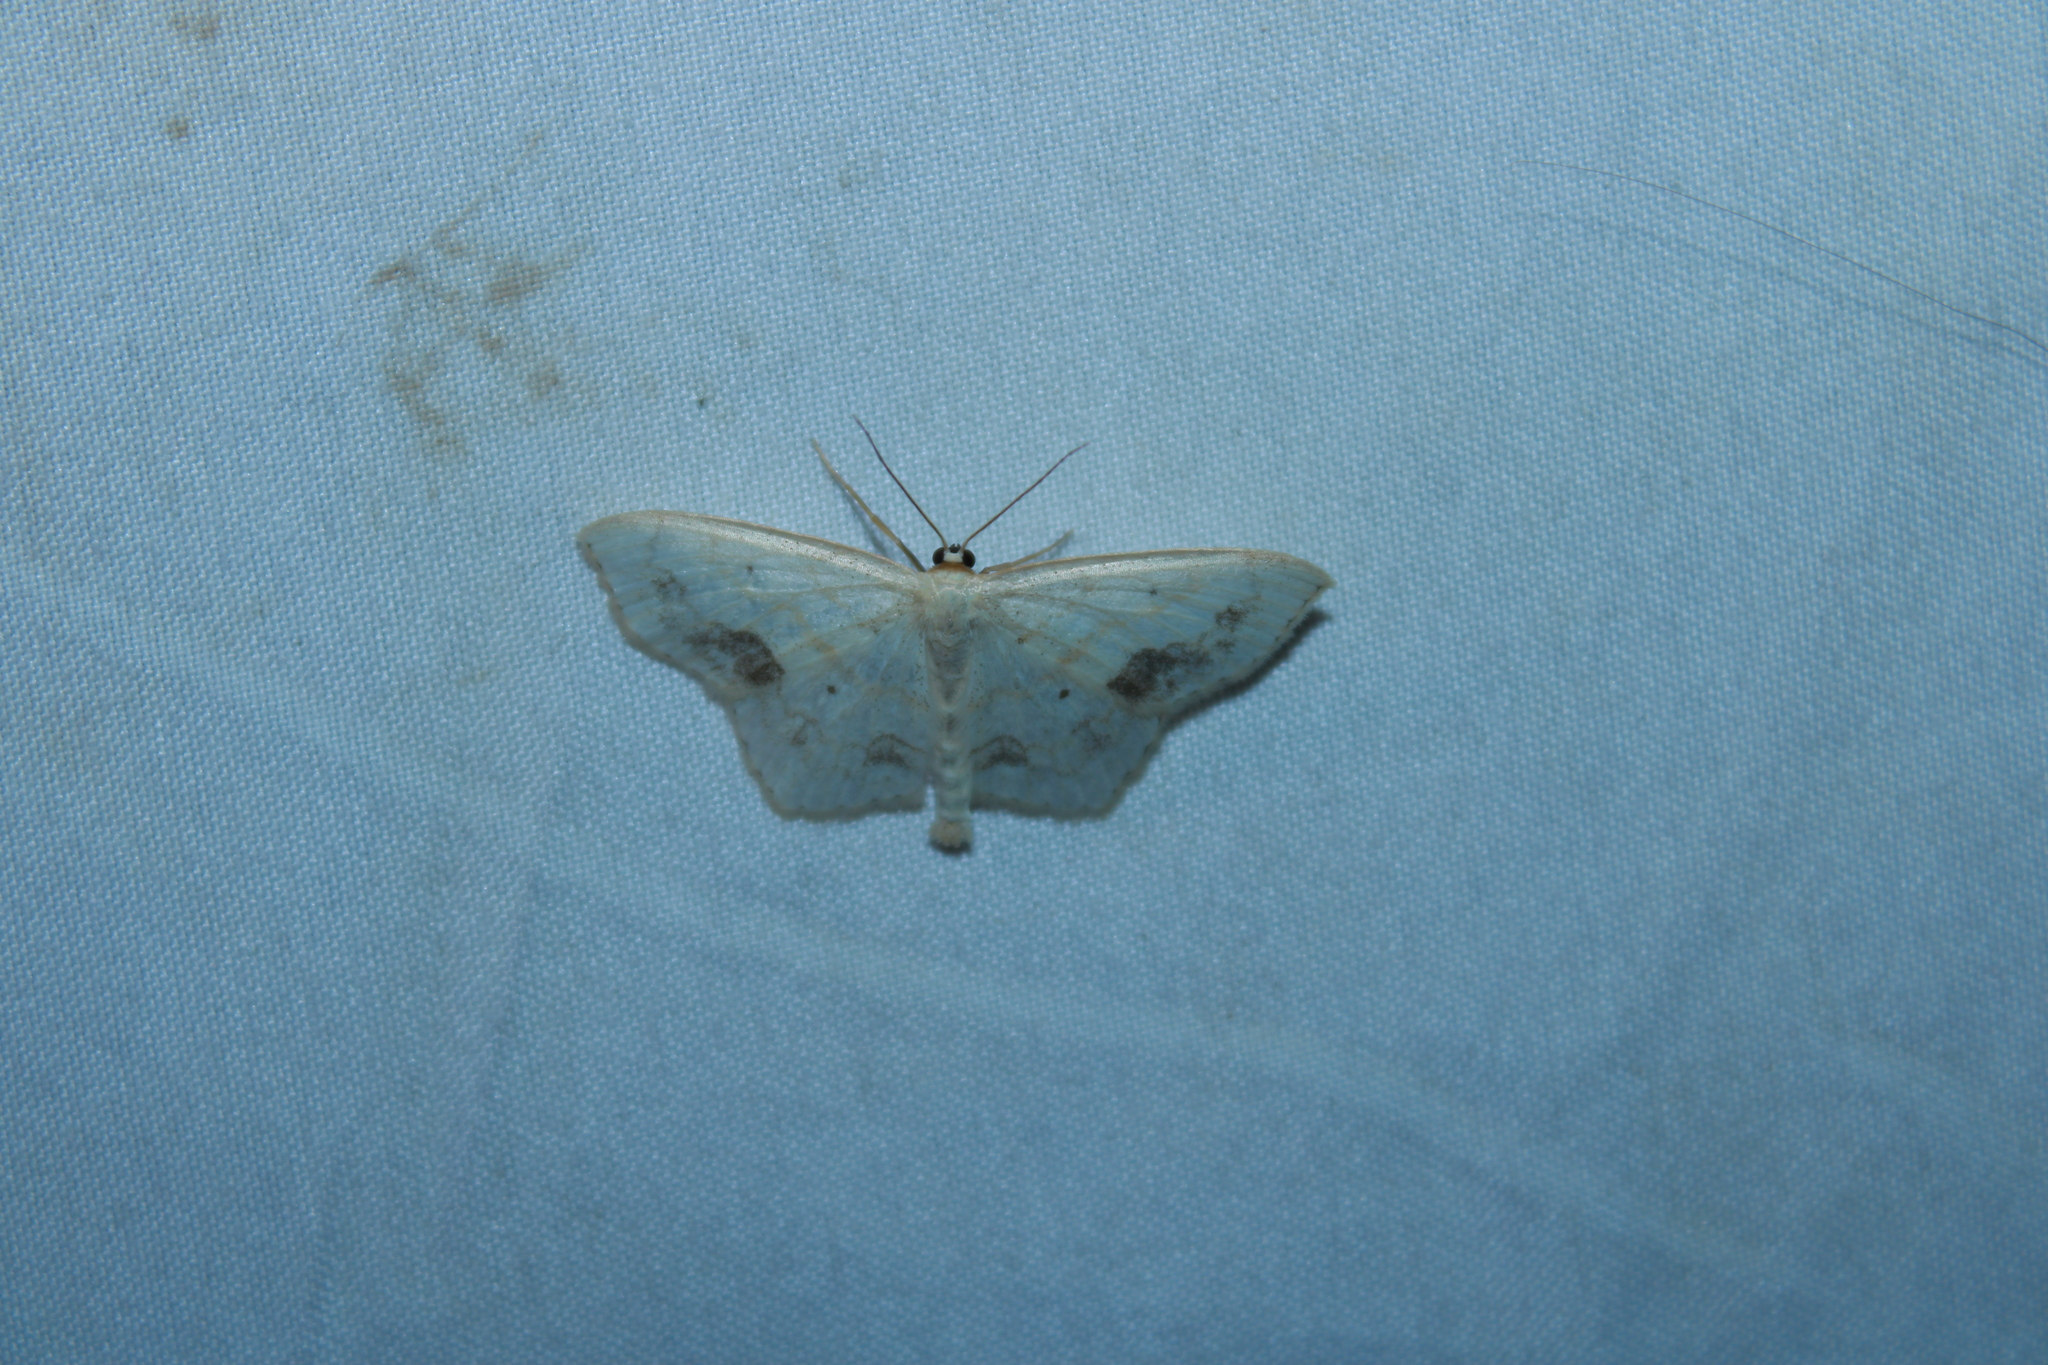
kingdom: Animalia
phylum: Arthropoda
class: Insecta
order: Lepidoptera
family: Geometridae
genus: Scopula
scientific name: Scopula limboundata
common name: Large lace border
